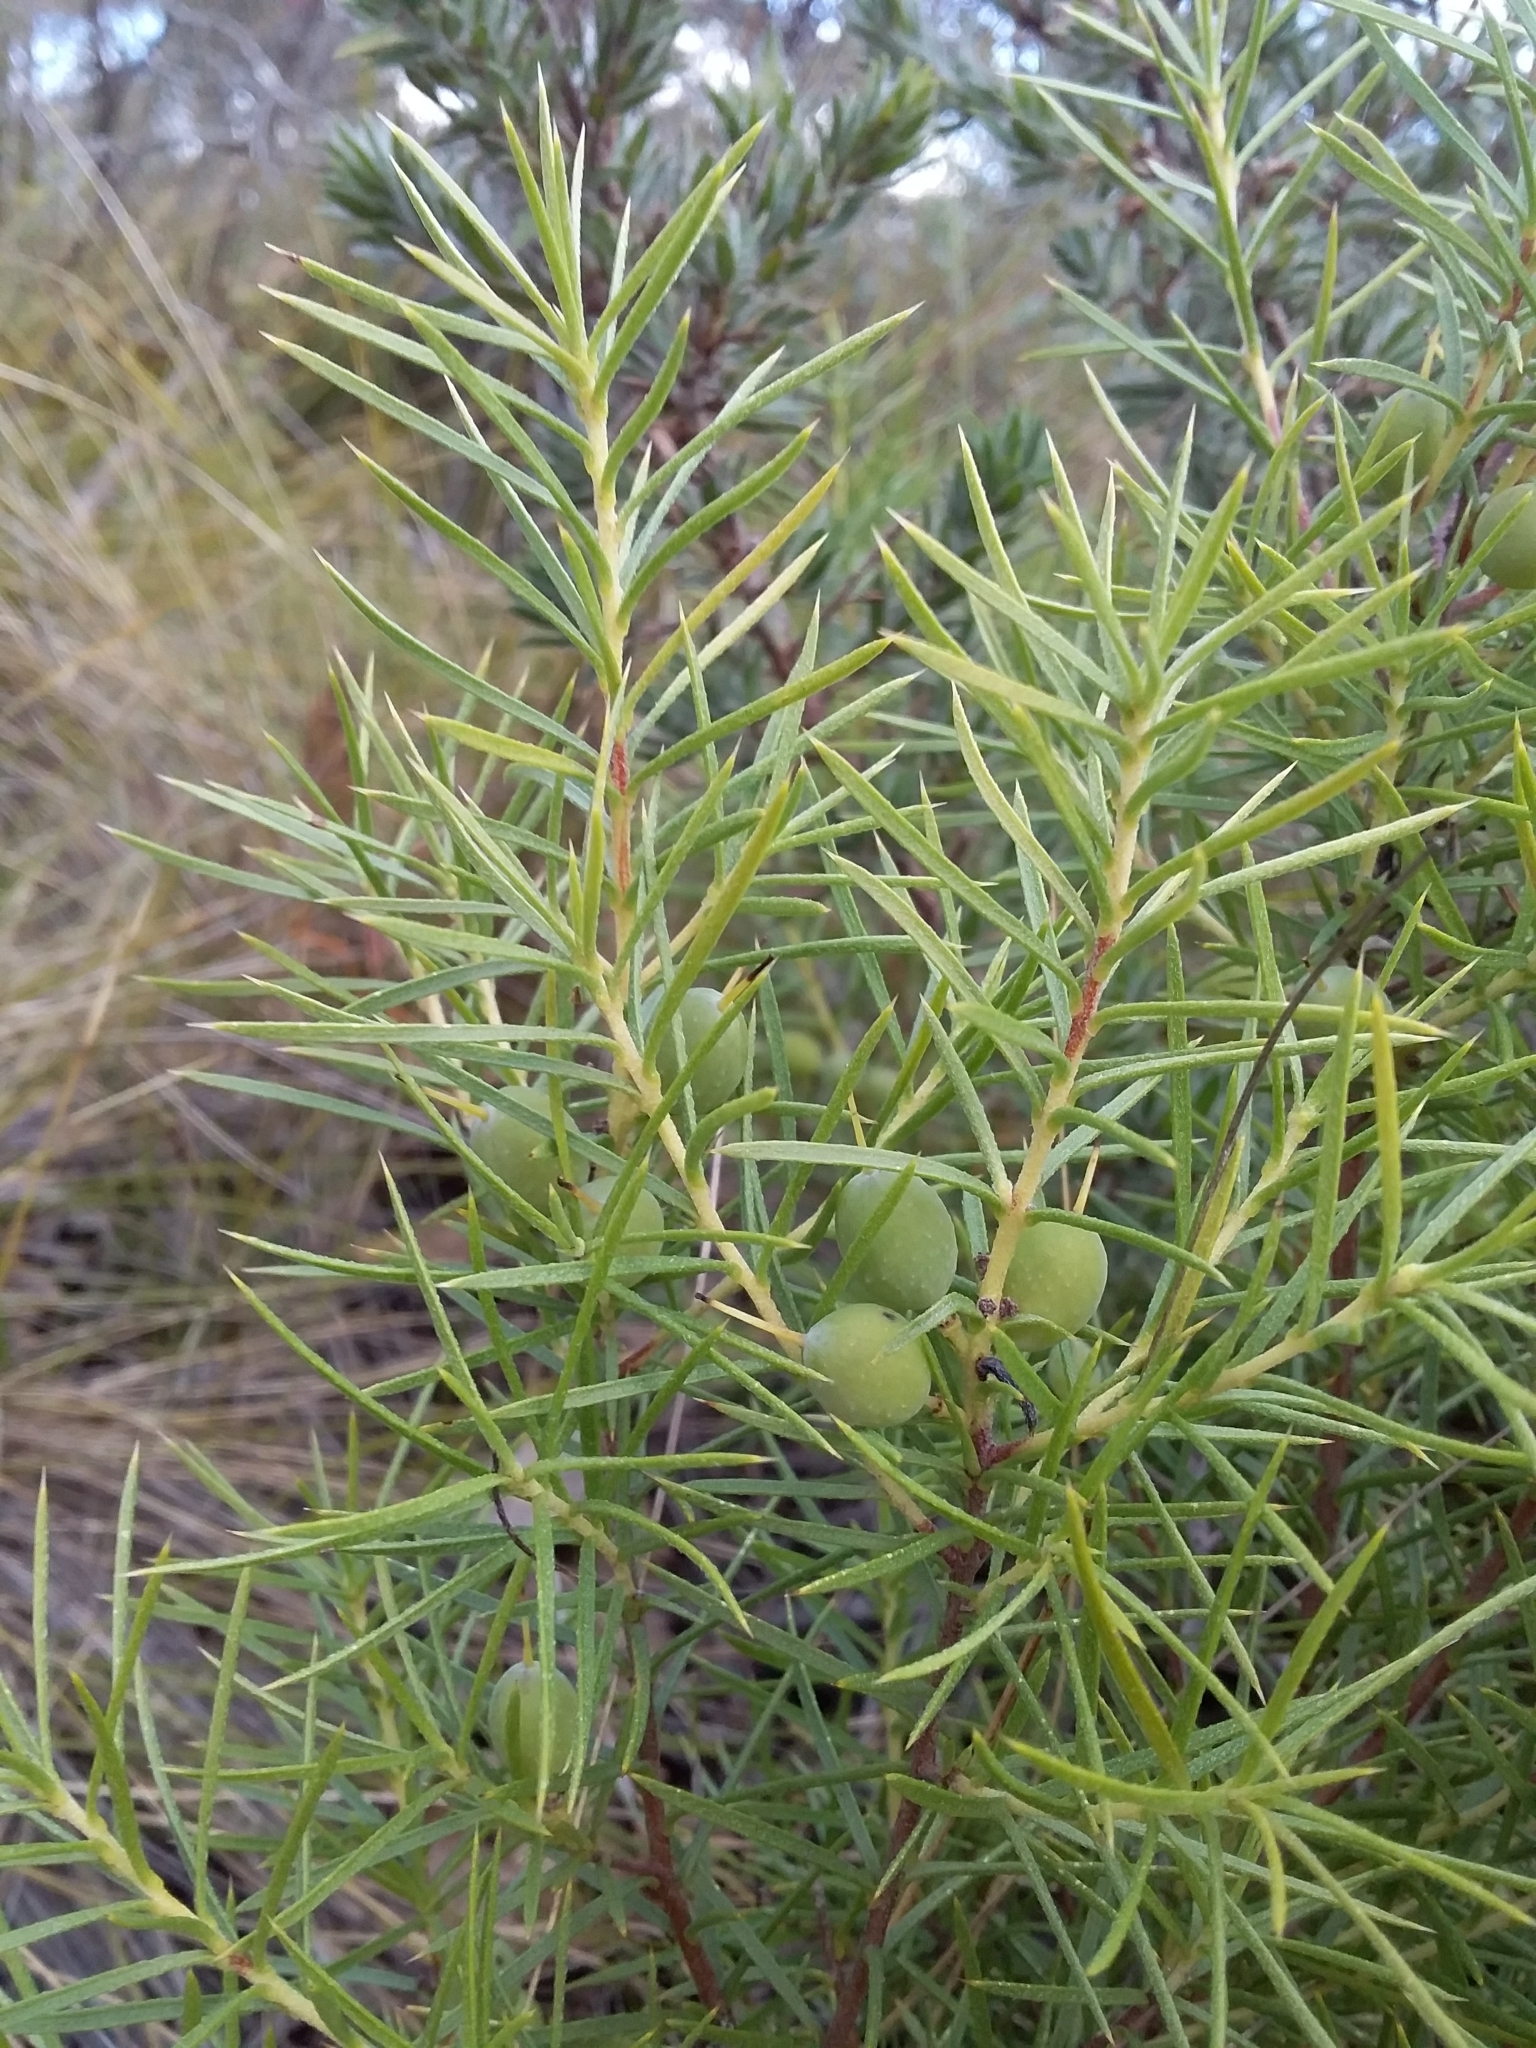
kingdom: Plantae
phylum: Tracheophyta
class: Magnoliopsida
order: Proteales
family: Proteaceae
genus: Persoonia
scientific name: Persoonia juniperina
